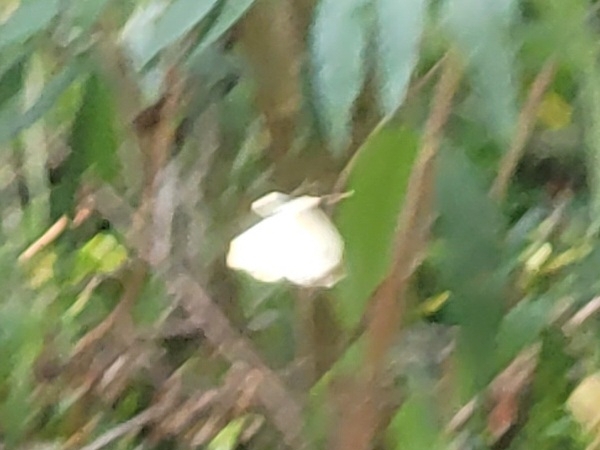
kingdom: Animalia
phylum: Arthropoda
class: Insecta
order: Lepidoptera
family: Pieridae
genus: Pieris
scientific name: Pieris brassicae
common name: Large white
